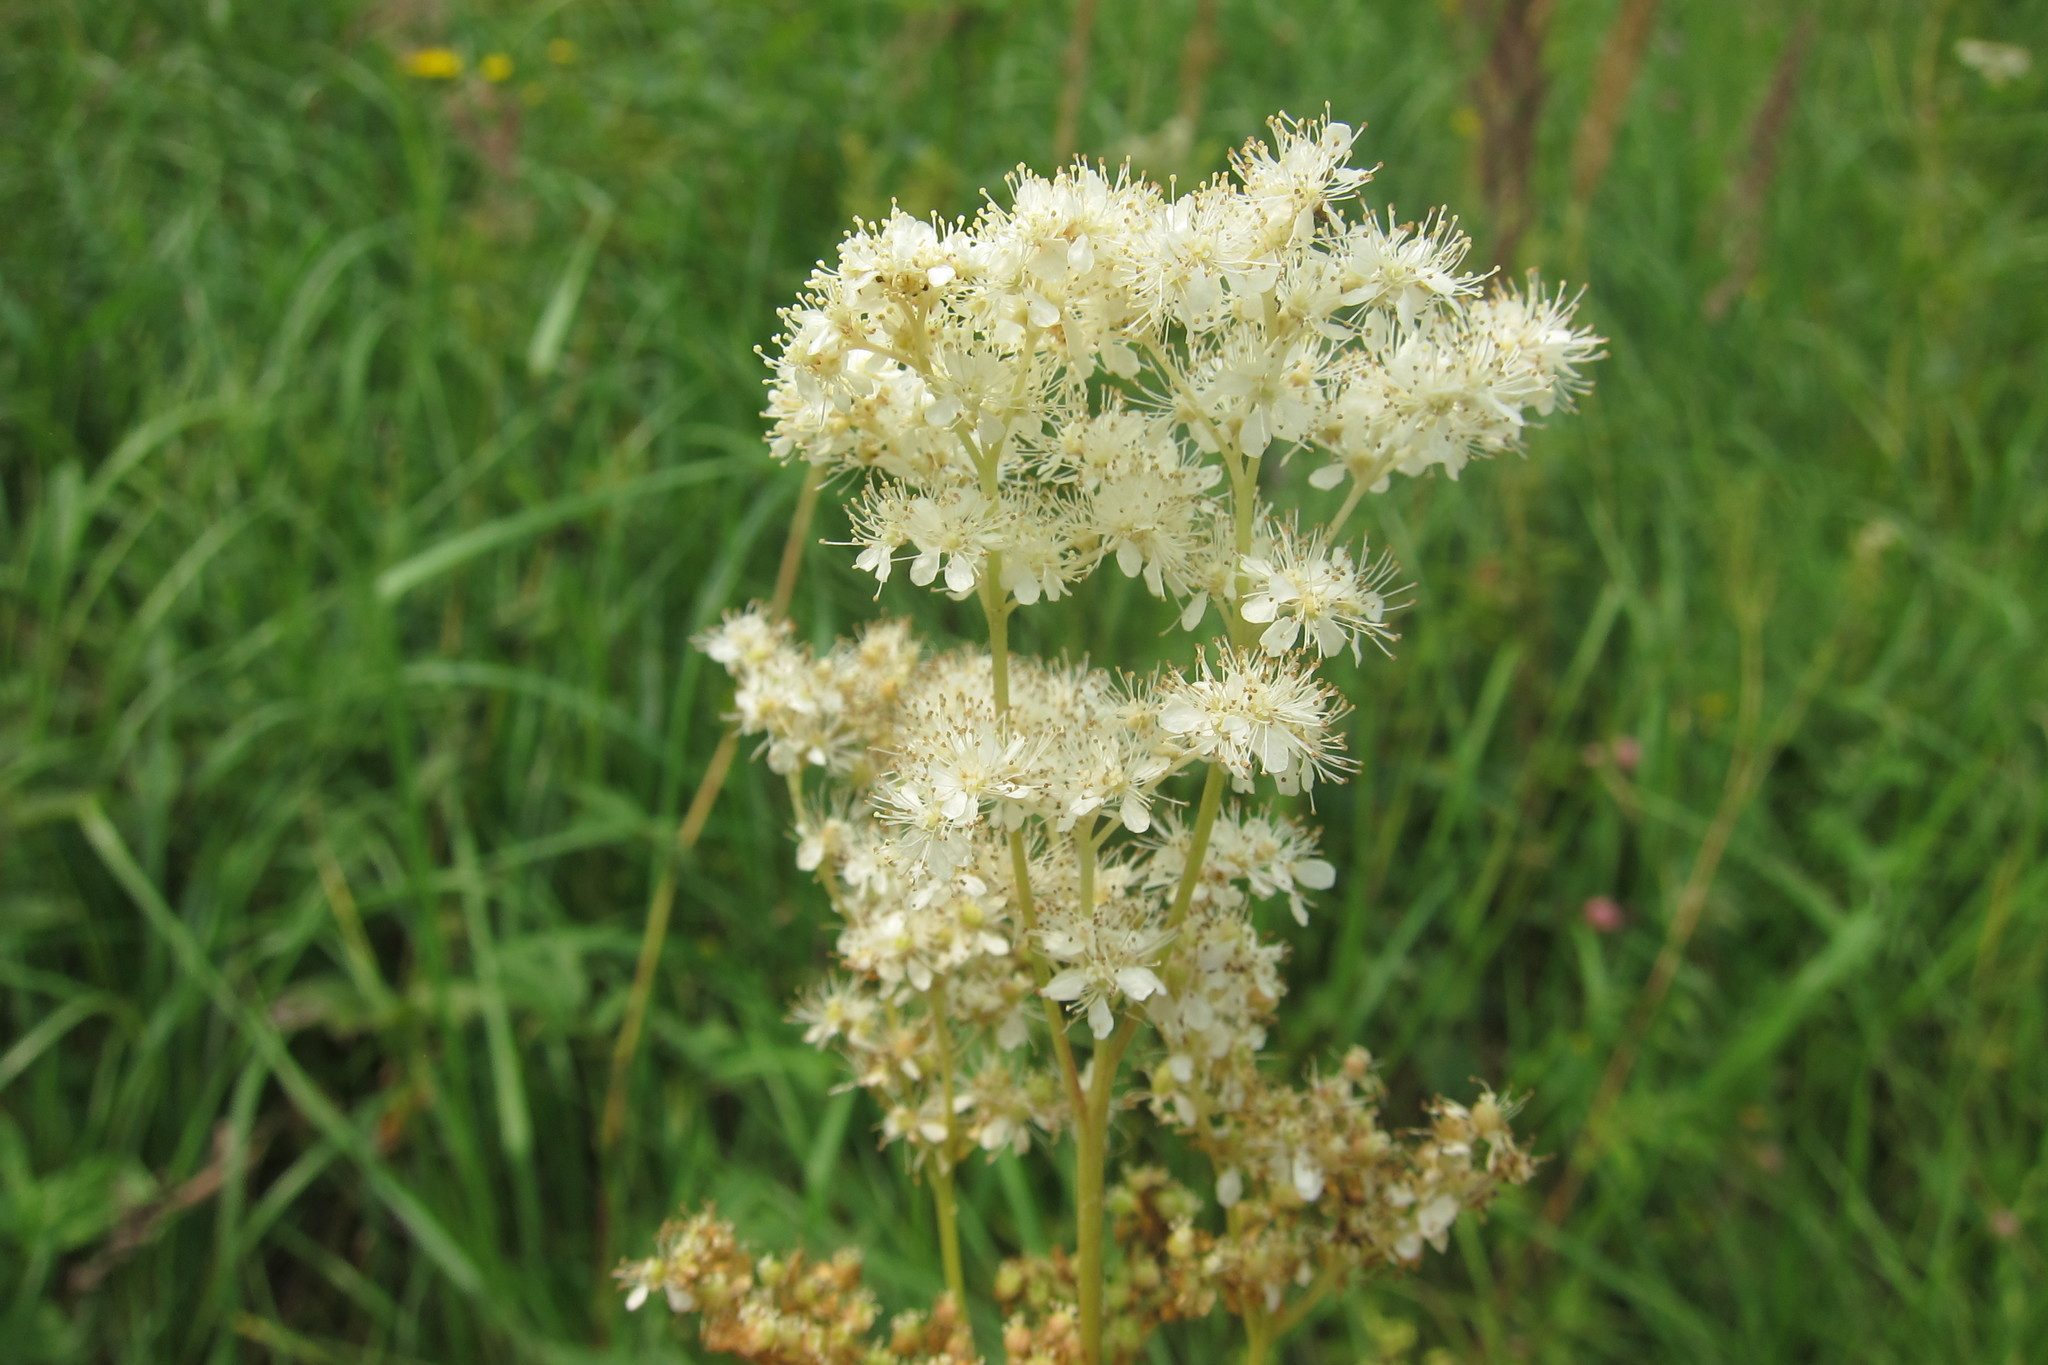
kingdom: Plantae
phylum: Tracheophyta
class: Magnoliopsida
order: Rosales
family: Rosaceae
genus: Filipendula
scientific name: Filipendula ulmaria
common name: Meadowsweet
